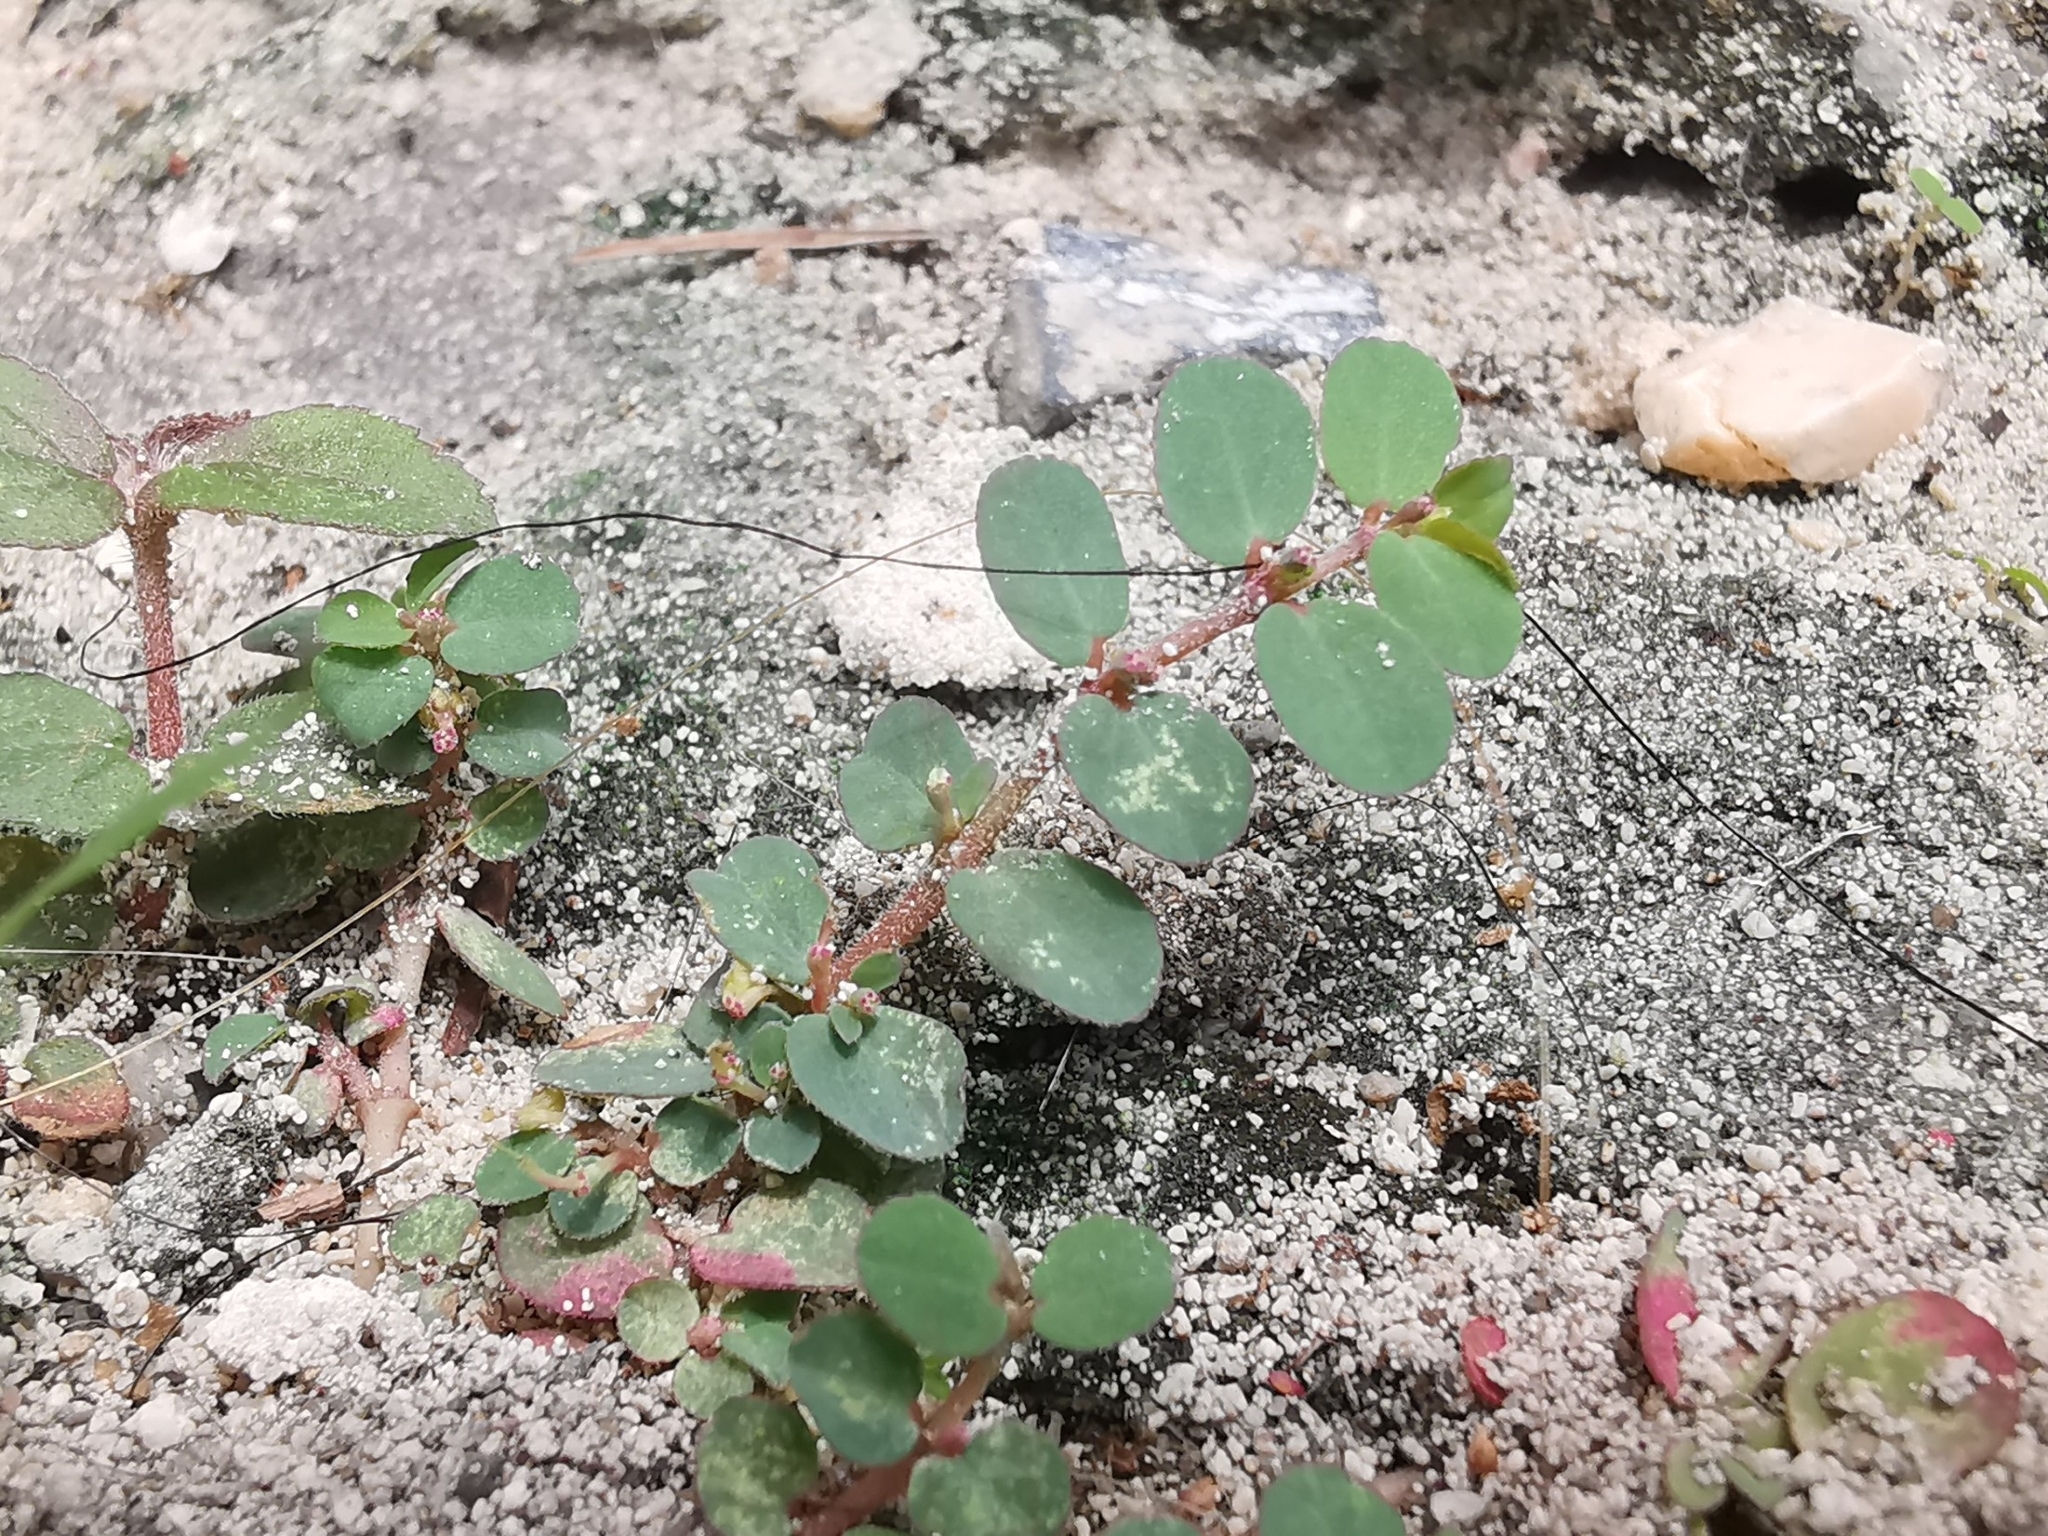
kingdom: Plantae
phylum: Tracheophyta
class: Magnoliopsida
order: Malpighiales
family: Euphorbiaceae
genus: Euphorbia
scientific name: Euphorbia prostrata
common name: Prostrate sandmat
